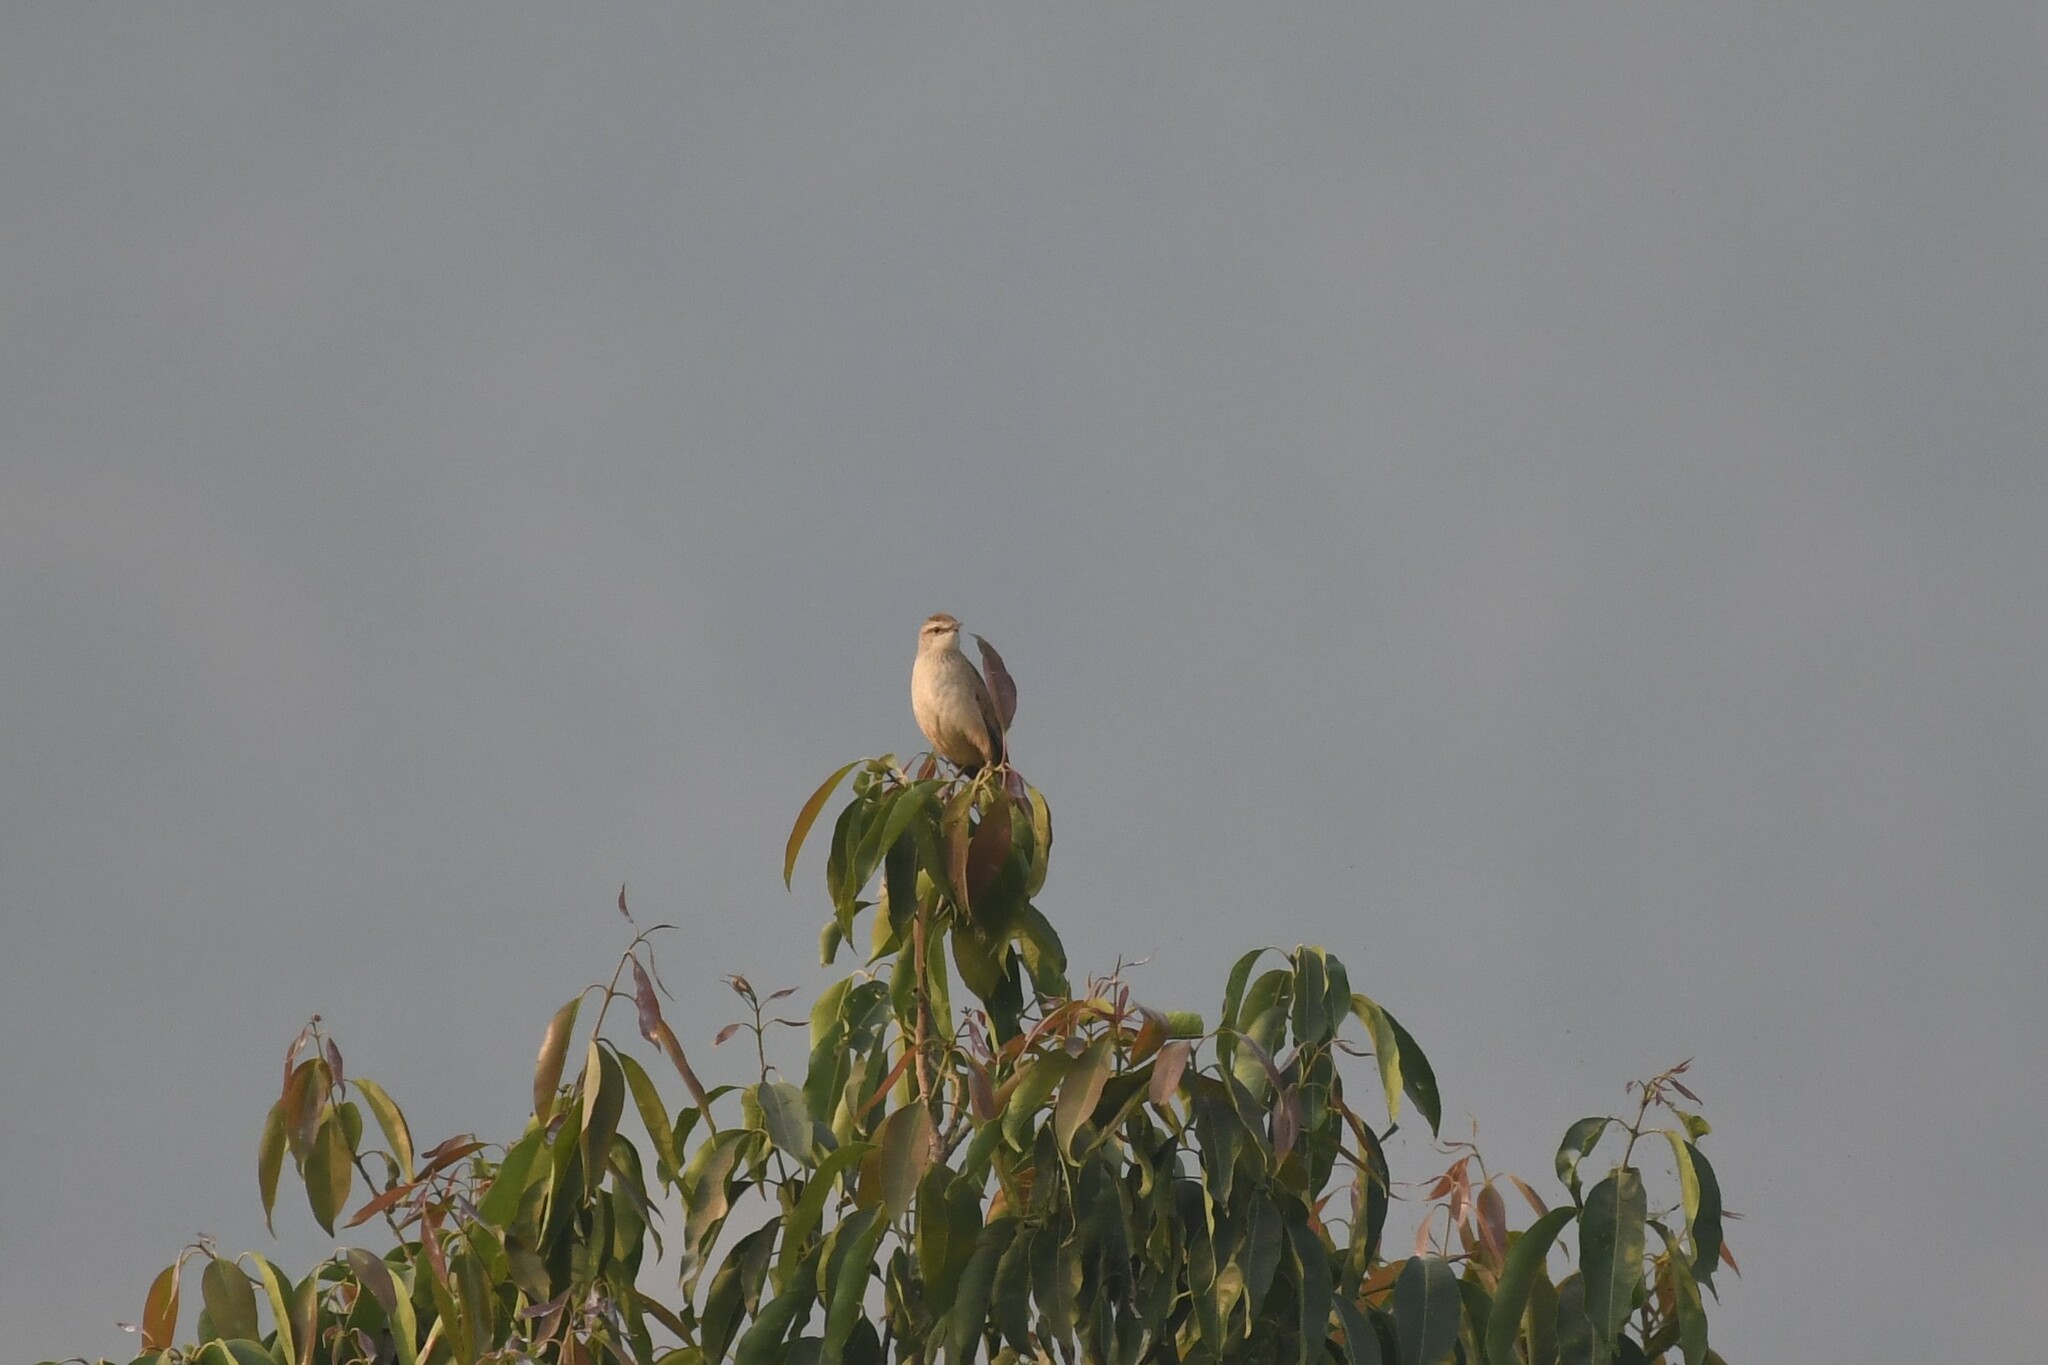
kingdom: Animalia
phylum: Chordata
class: Aves
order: Passeriformes
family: Locustellidae
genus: Megalurus
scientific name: Megalurus palustris
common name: Striated grassbird
